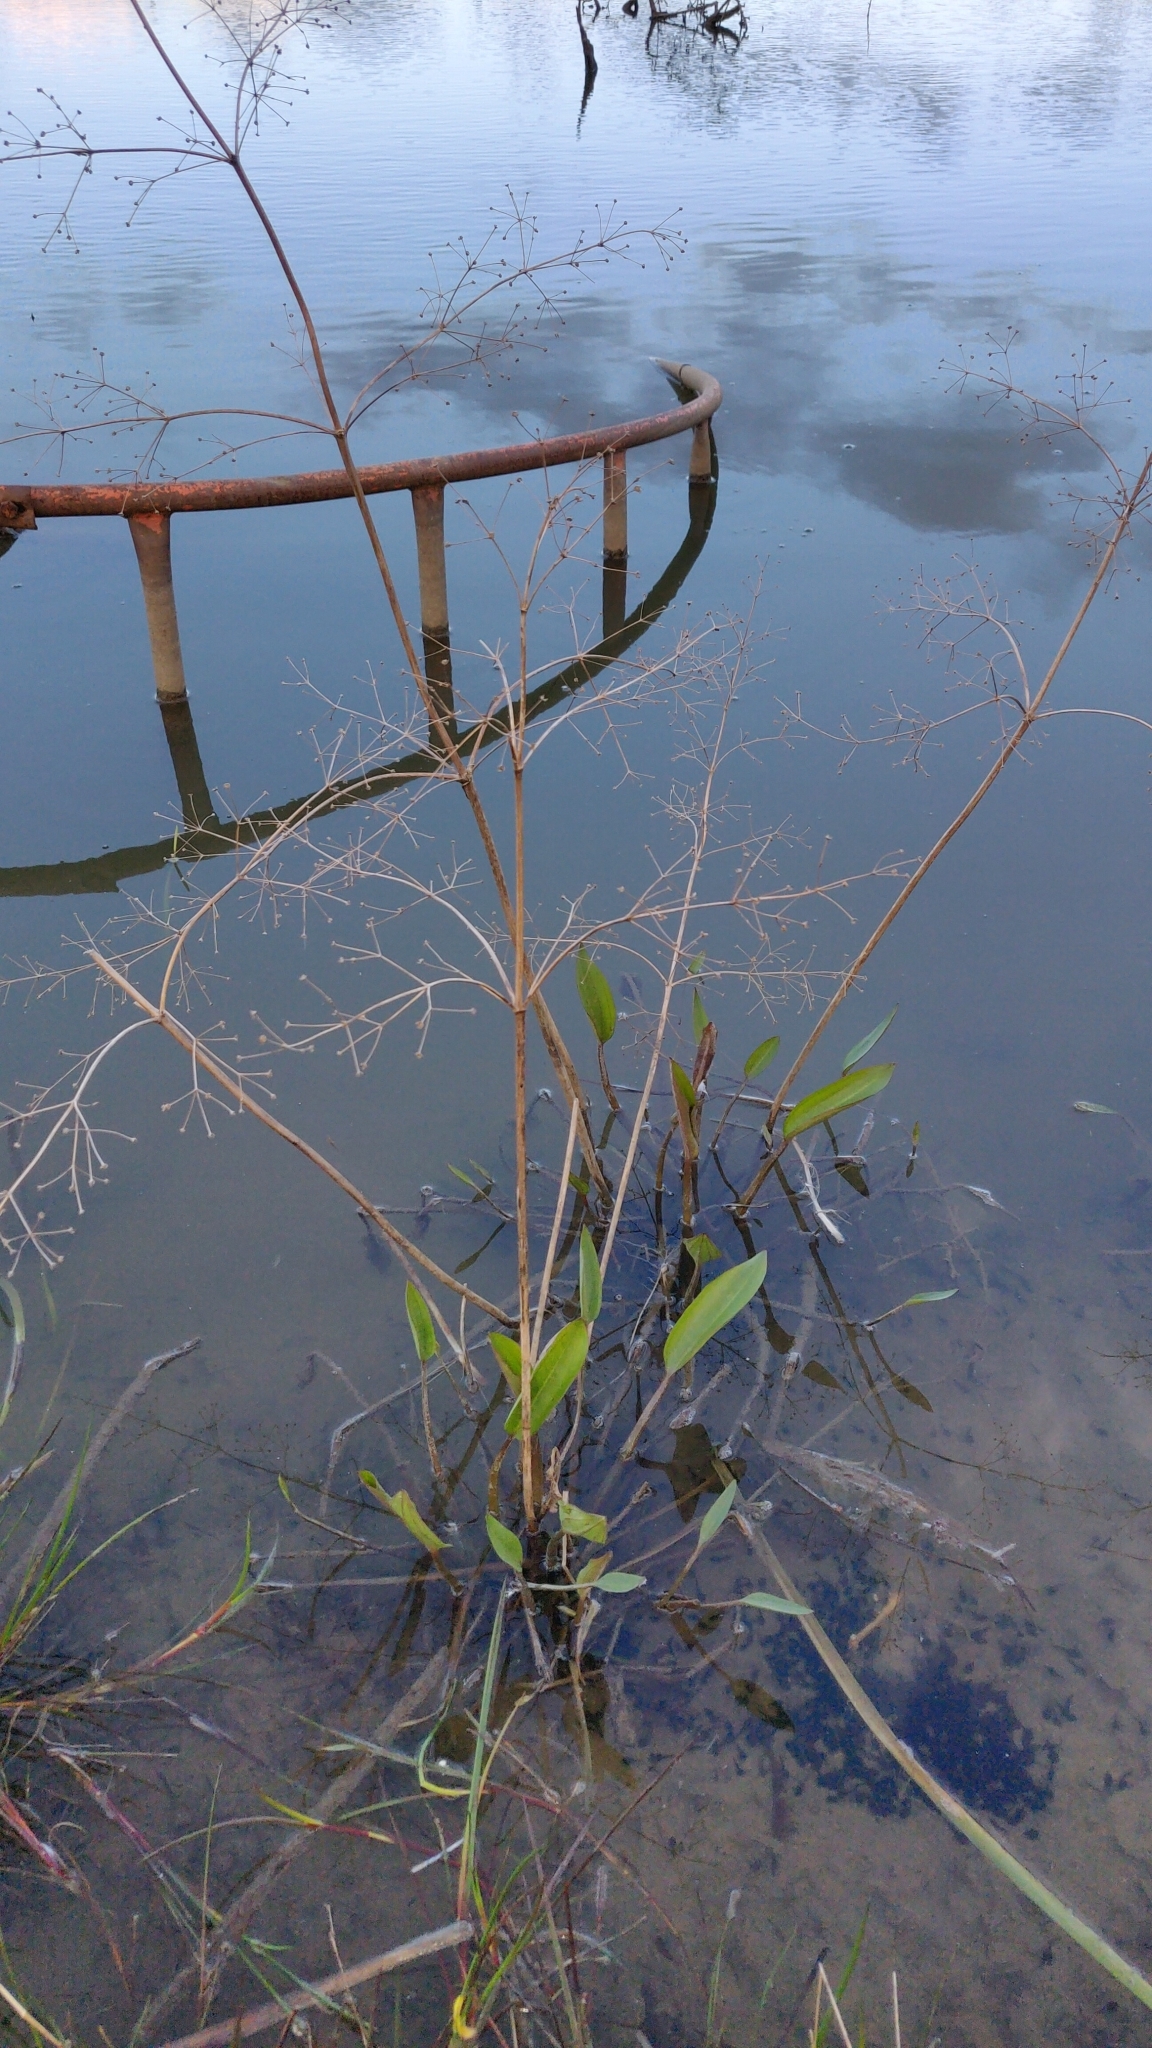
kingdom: Plantae
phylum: Tracheophyta
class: Liliopsida
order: Alismatales
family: Alismataceae
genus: Alisma
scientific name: Alisma plantago-aquatica
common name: Water-plantain
